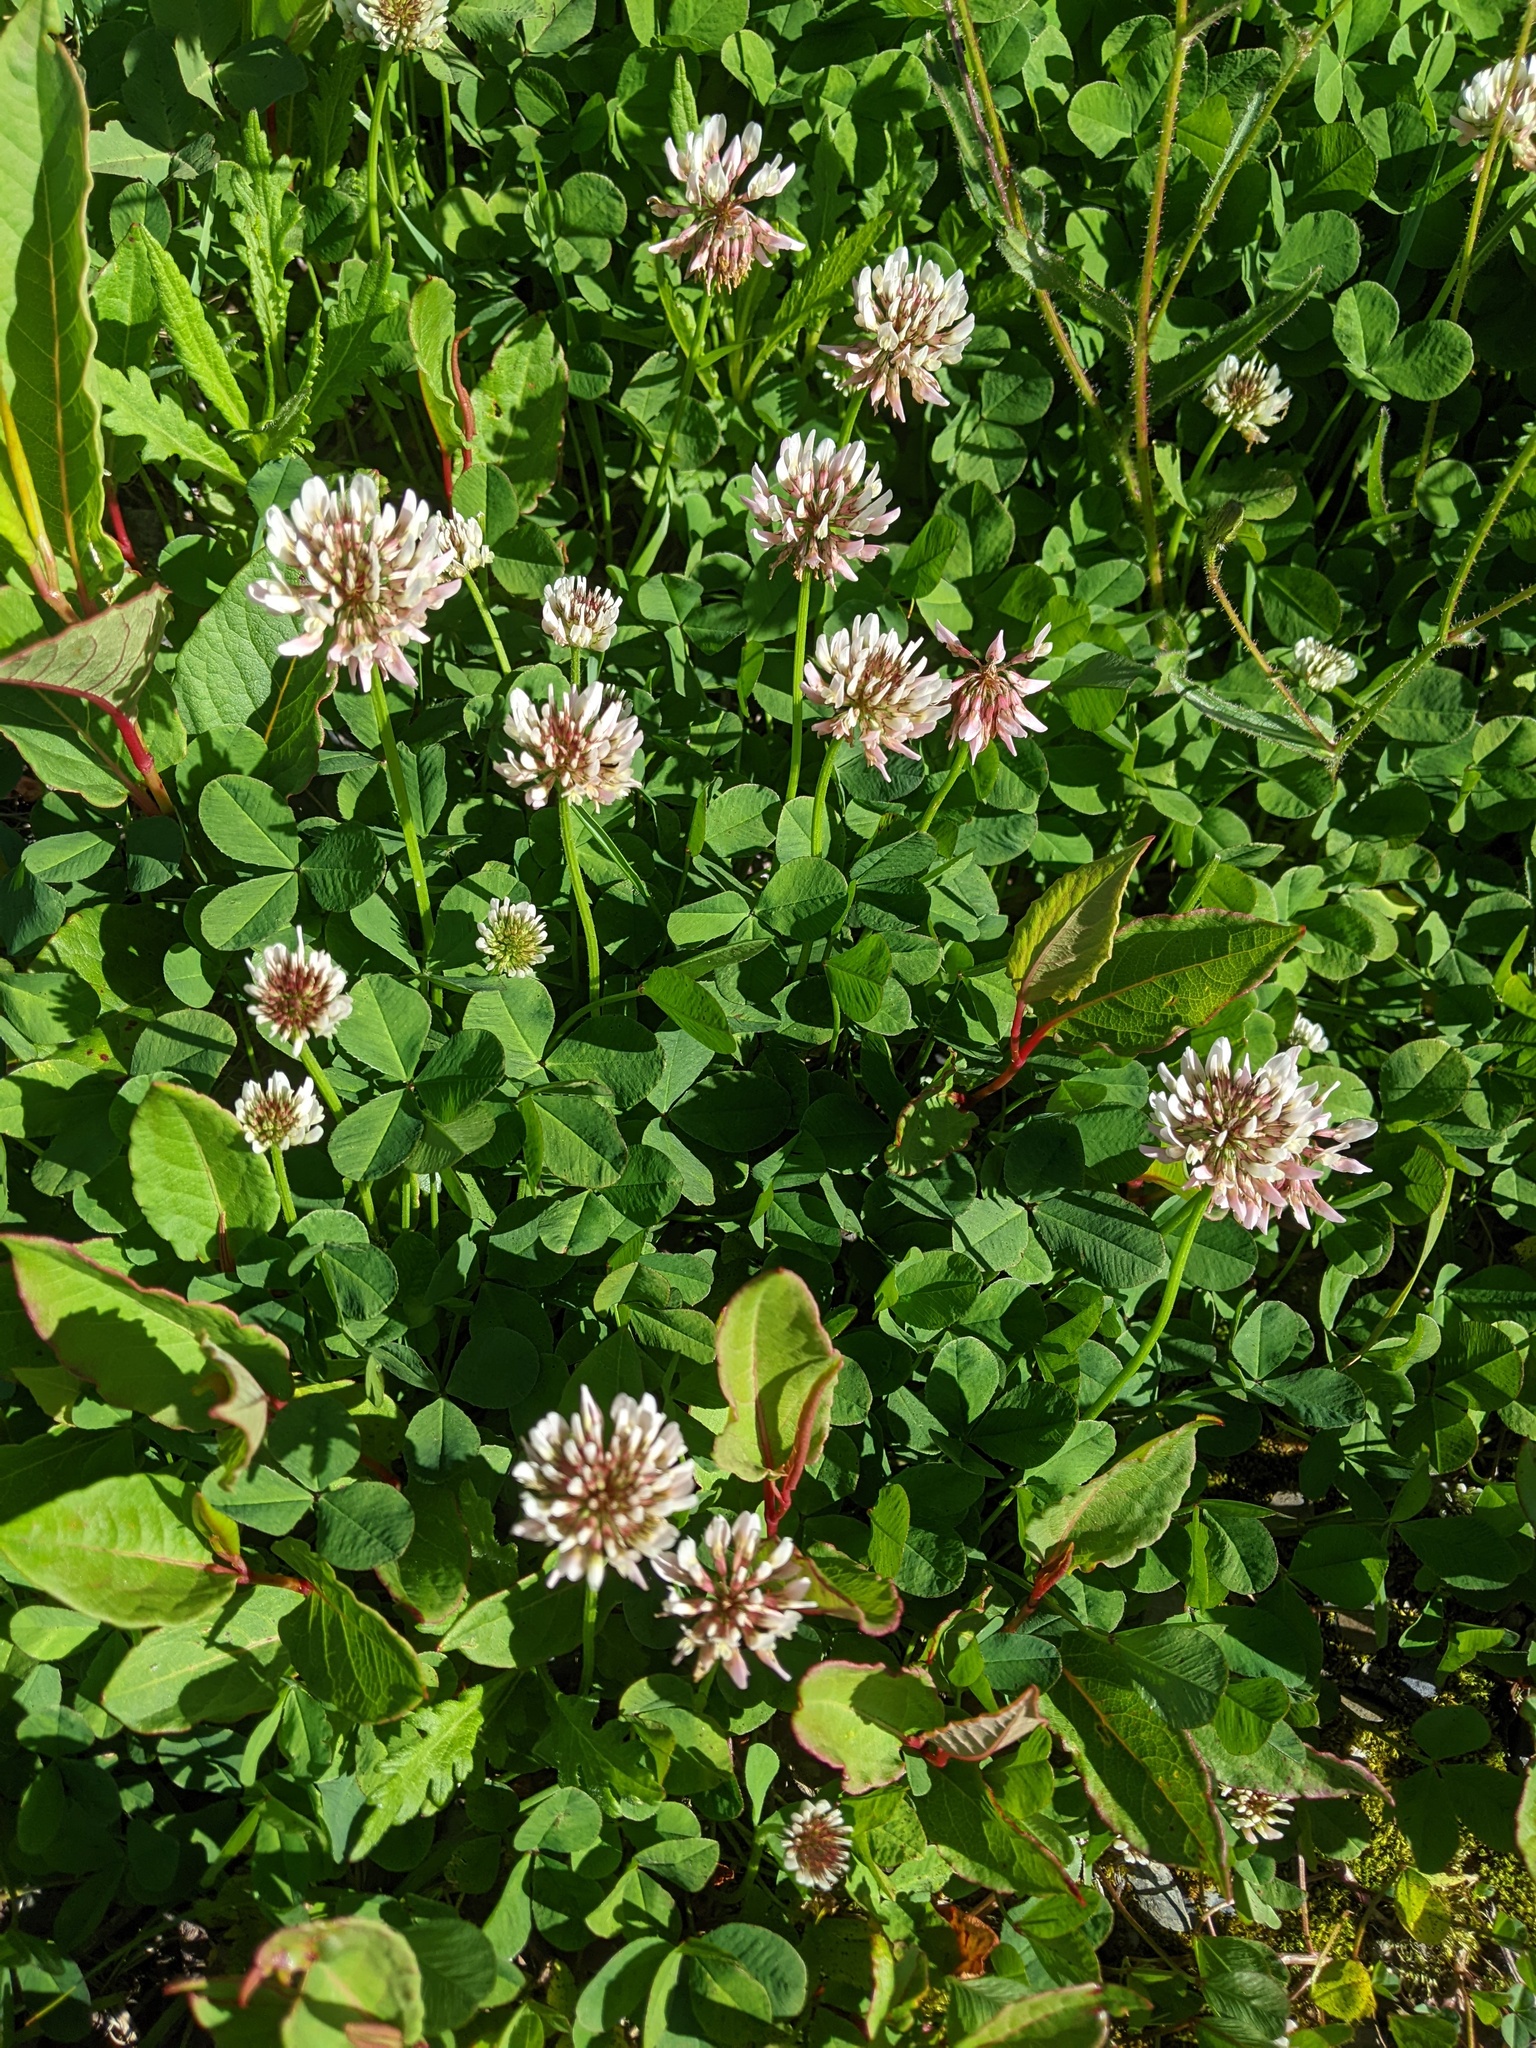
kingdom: Plantae
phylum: Tracheophyta
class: Magnoliopsida
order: Fabales
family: Fabaceae
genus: Trifolium
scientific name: Trifolium repens
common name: White clover
